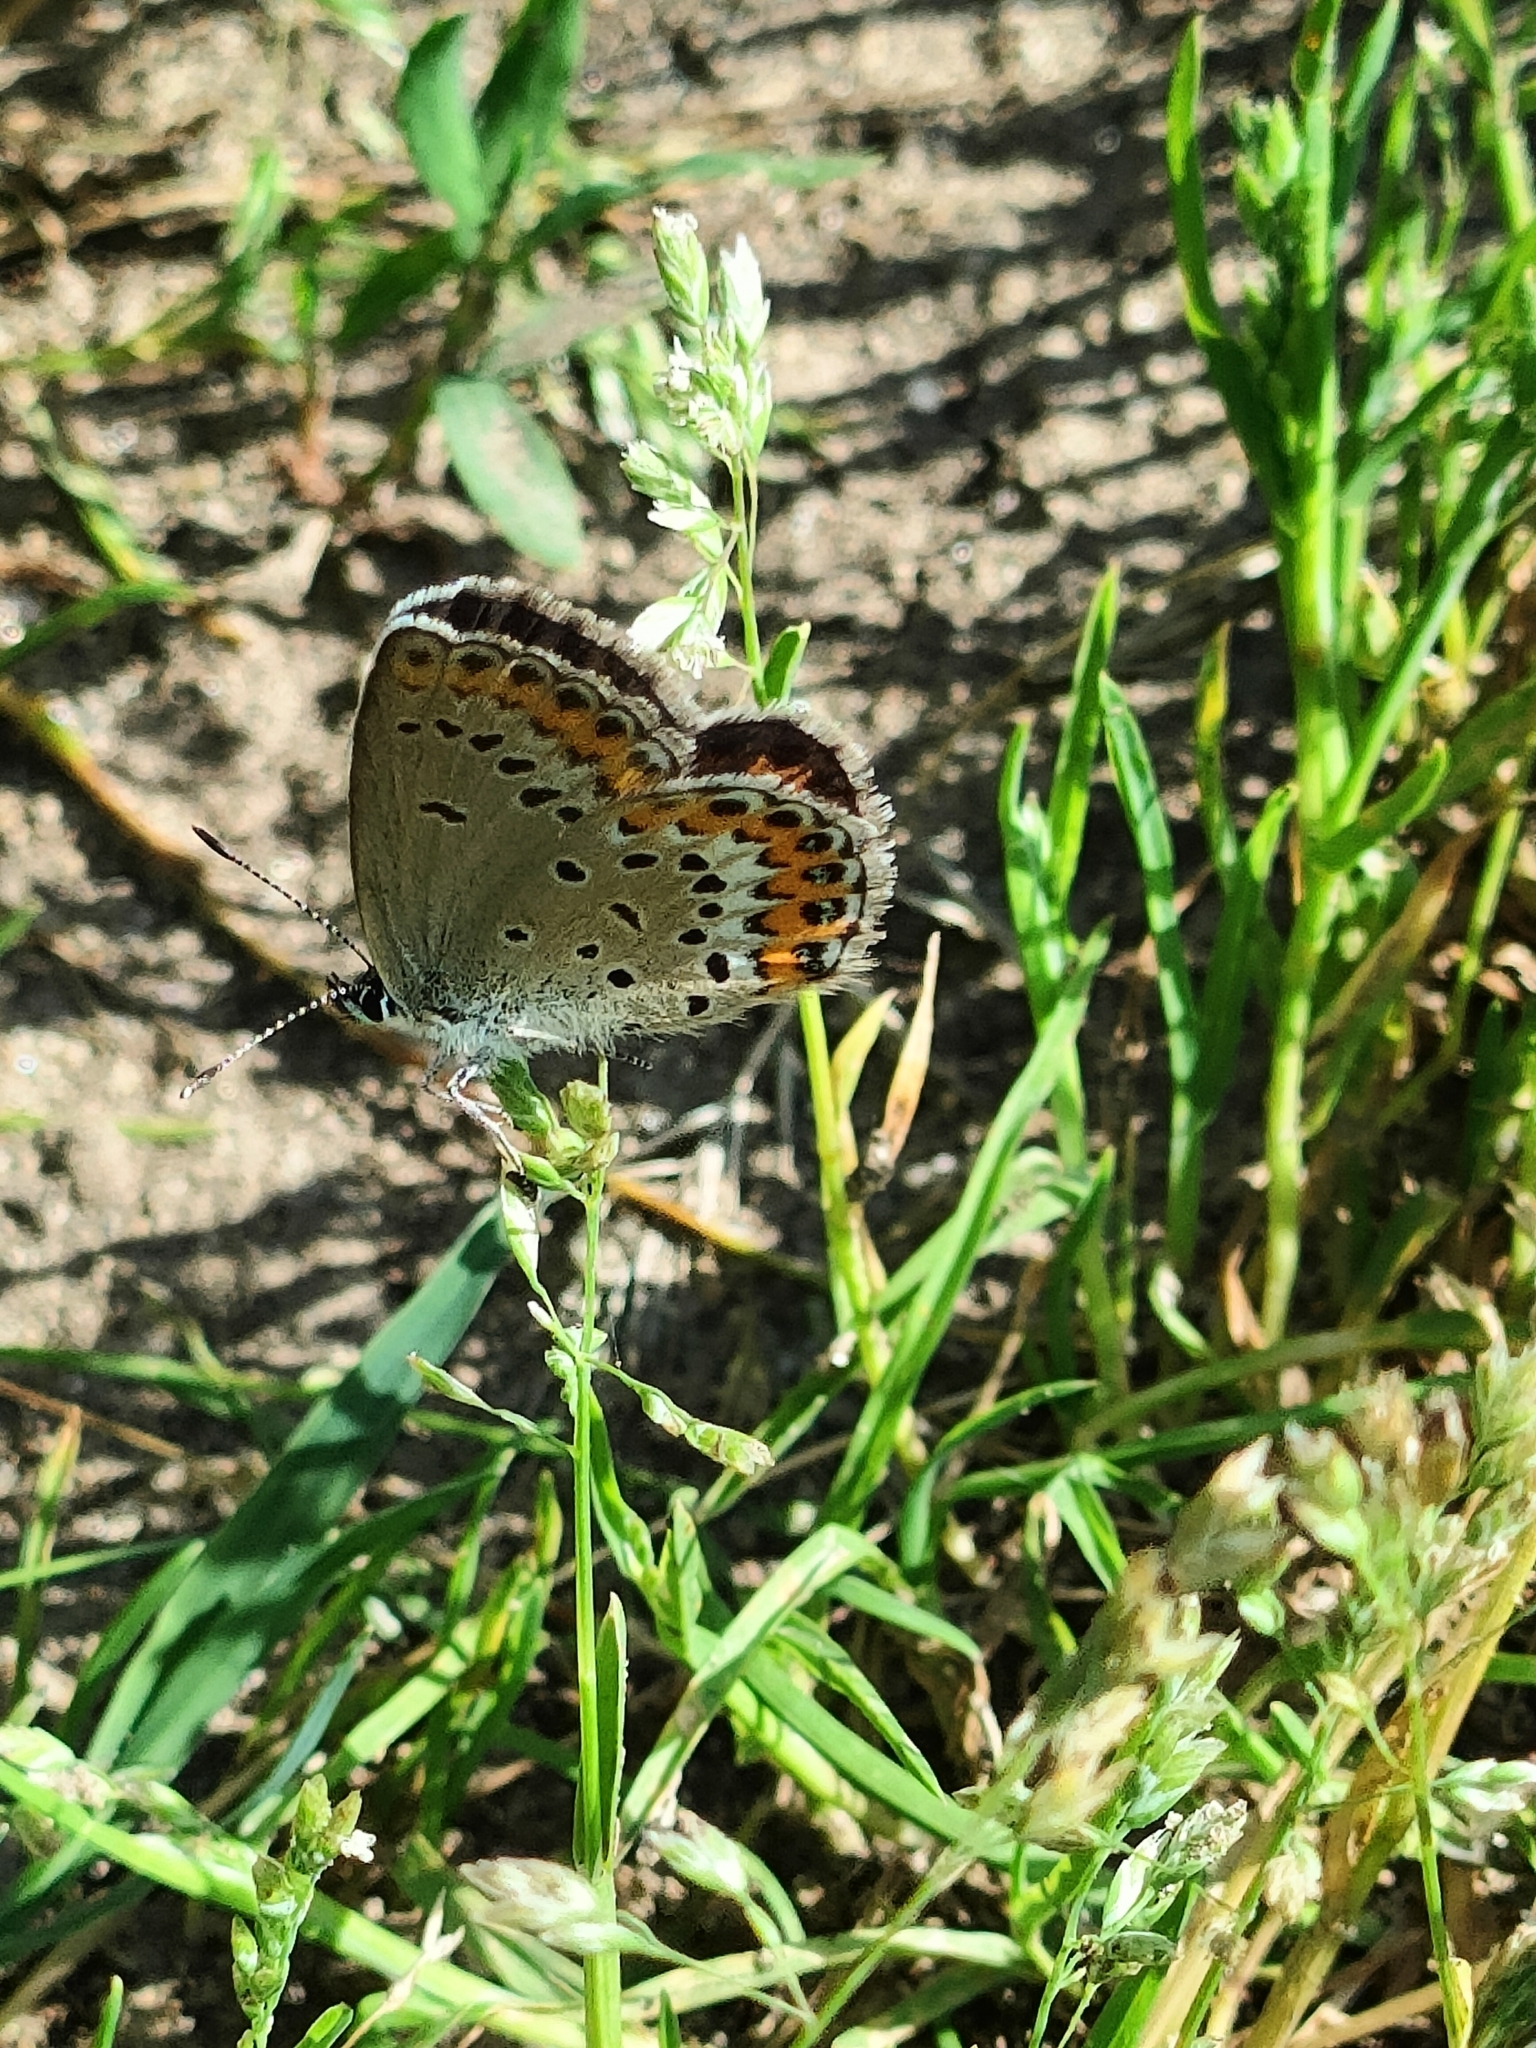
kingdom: Animalia
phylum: Arthropoda
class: Insecta
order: Lepidoptera
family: Lycaenidae
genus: Plebejus
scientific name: Plebejus argyrognomon
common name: Reverdin's blue
